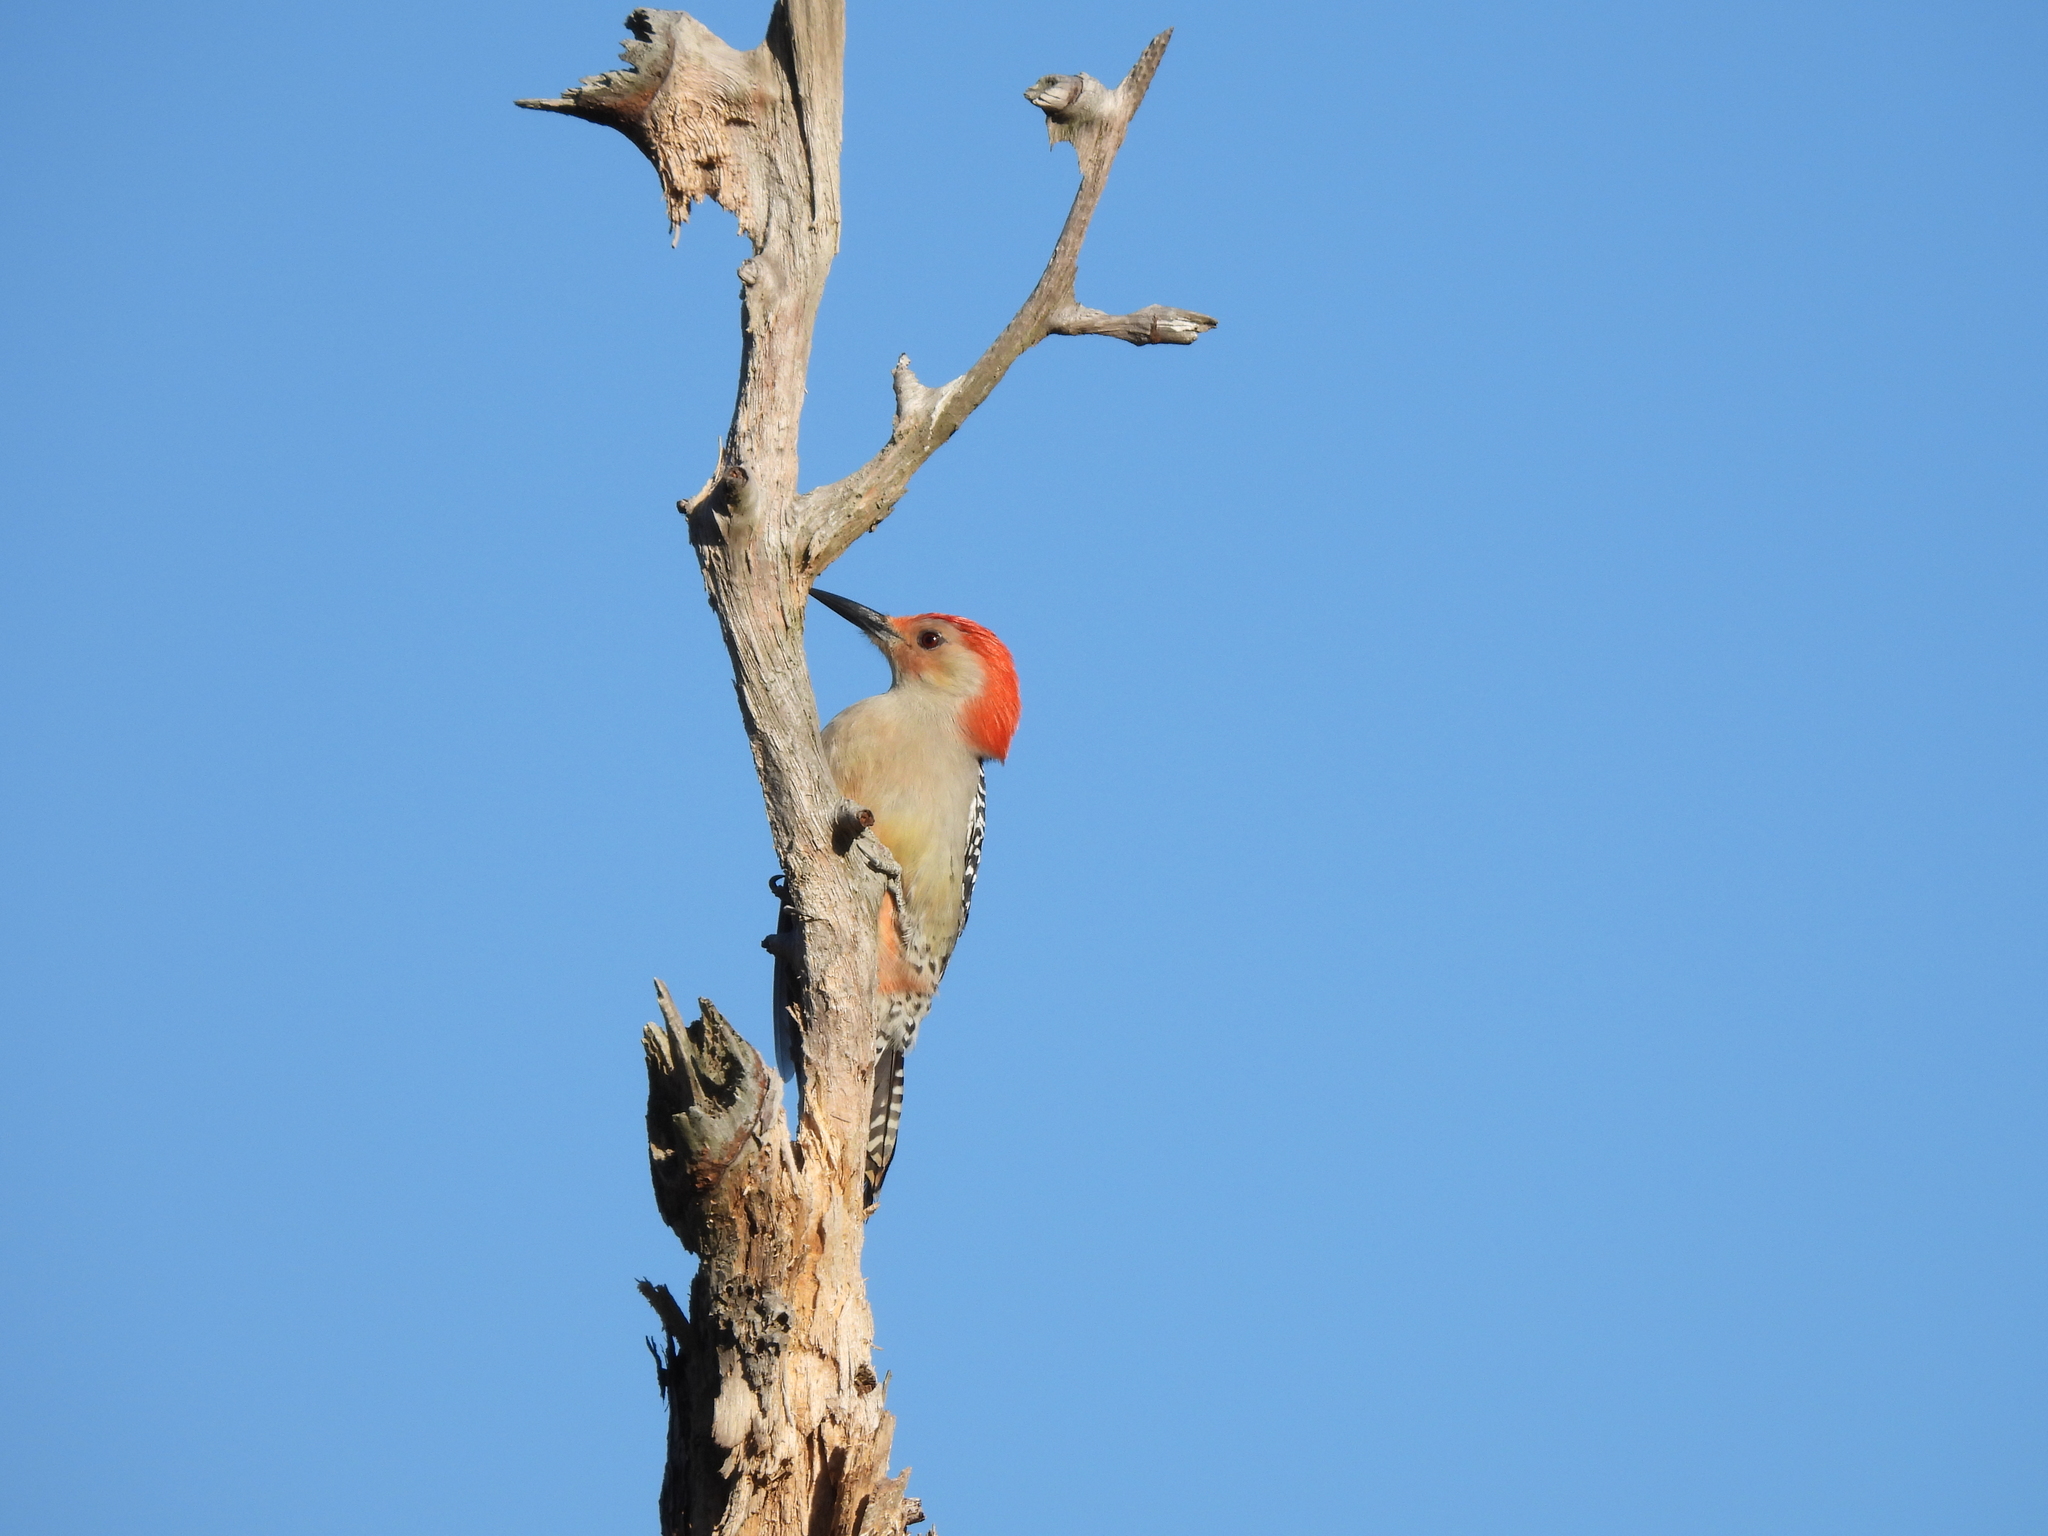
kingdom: Animalia
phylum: Chordata
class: Aves
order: Piciformes
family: Picidae
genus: Melanerpes
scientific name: Melanerpes carolinus
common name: Red-bellied woodpecker
